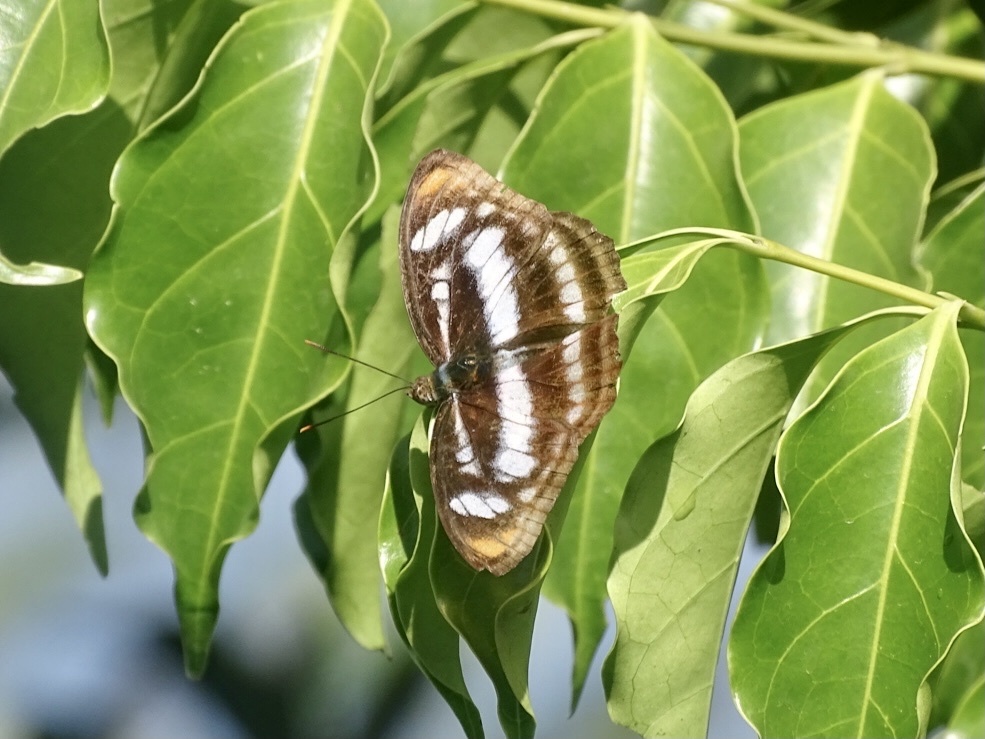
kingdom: Animalia
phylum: Arthropoda
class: Insecta
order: Lepidoptera
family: Nymphalidae
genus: Parathyma
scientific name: Parathyma nefte
